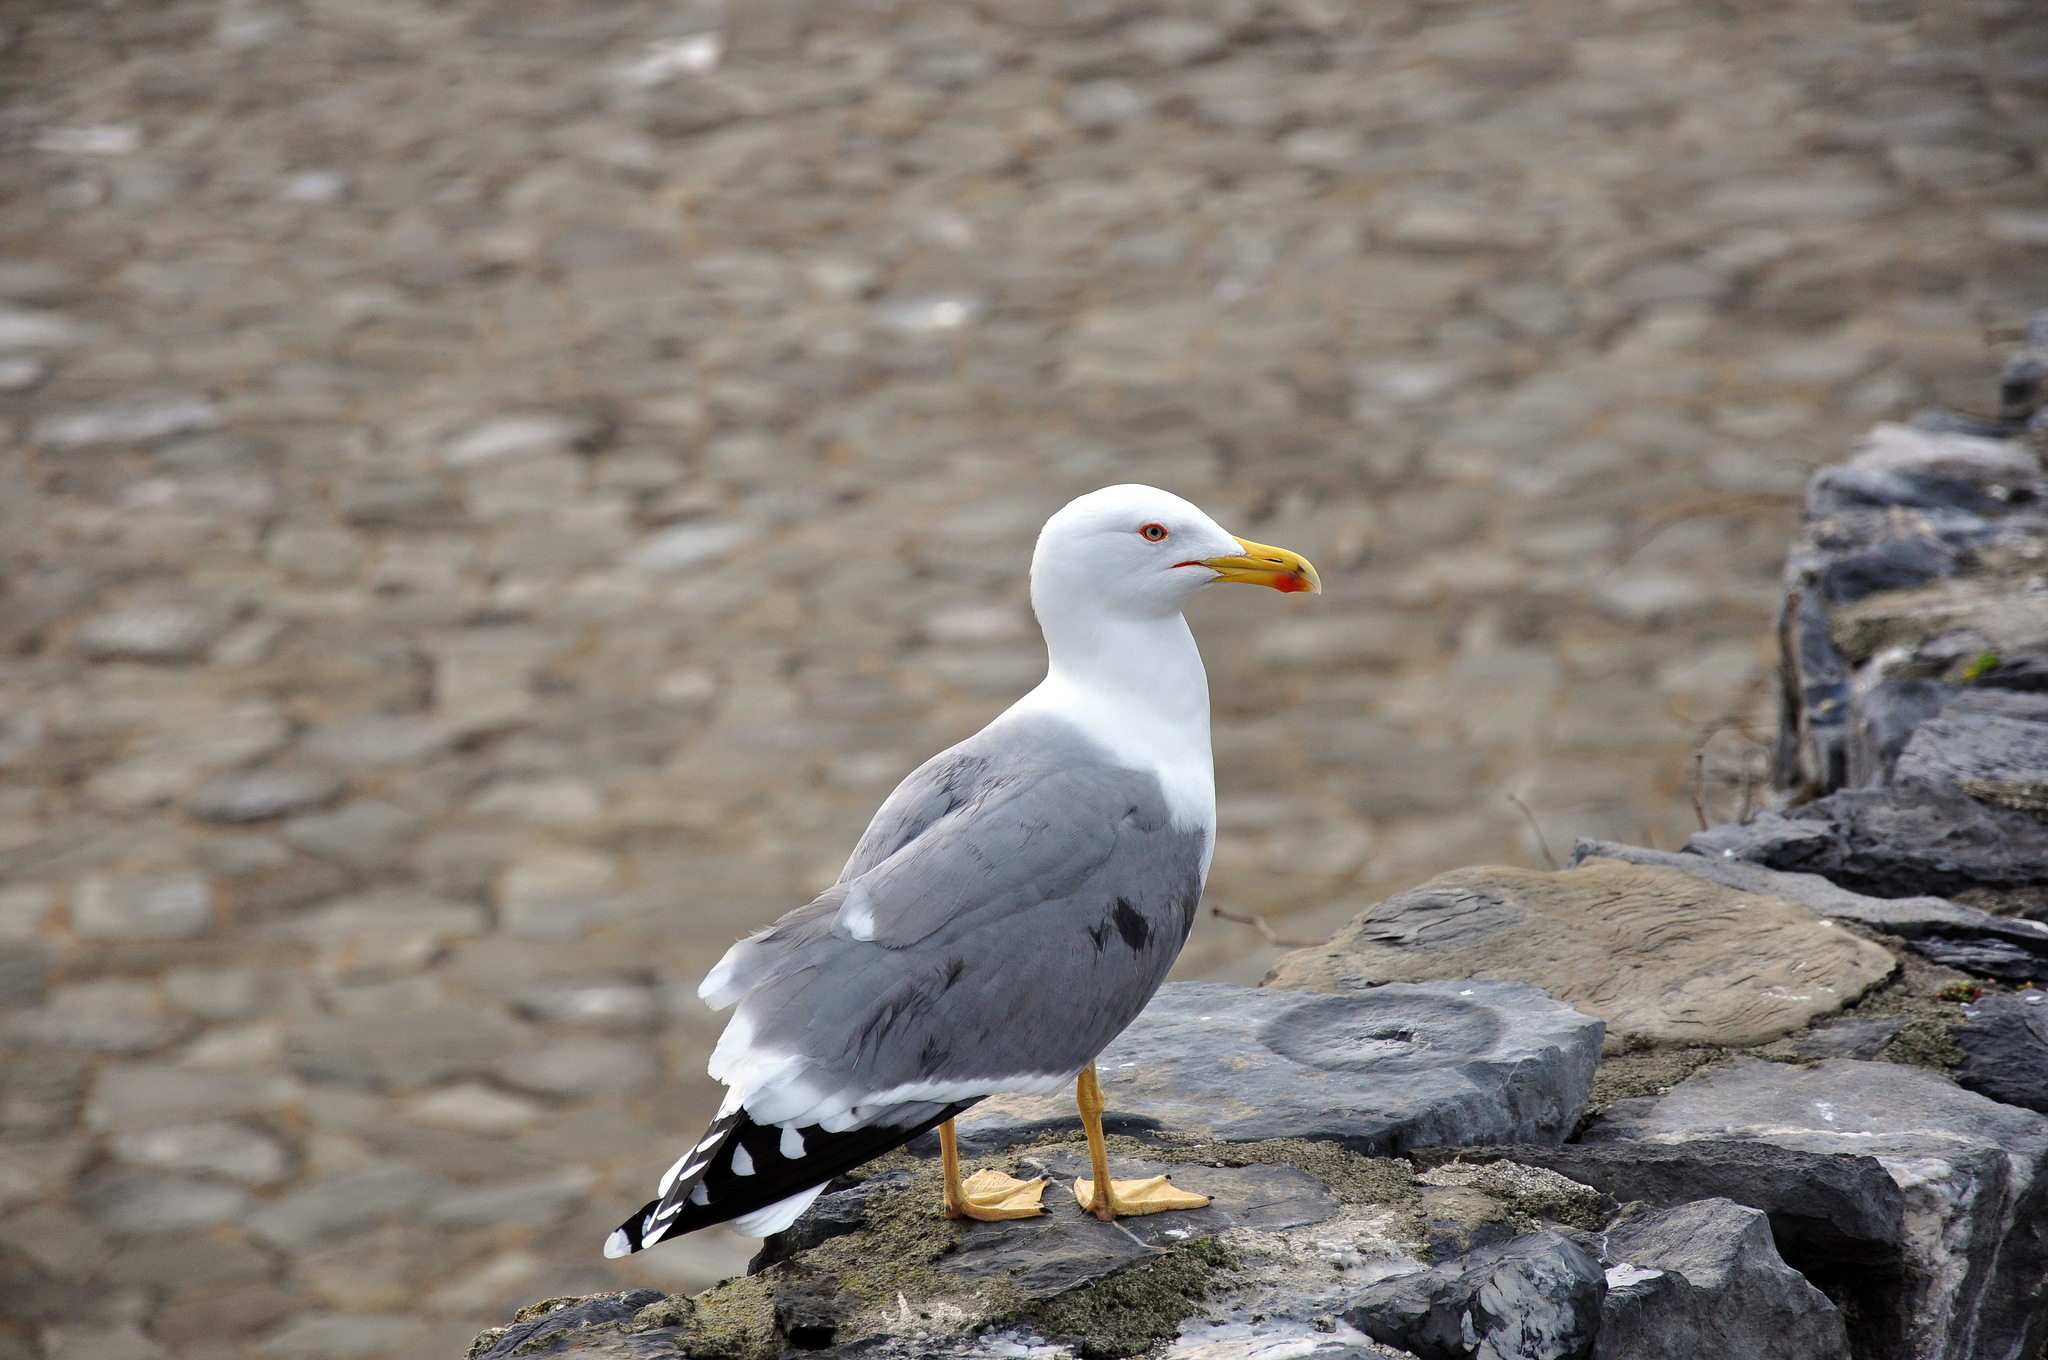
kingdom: Animalia
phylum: Chordata
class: Aves
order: Charadriiformes
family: Laridae
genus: Larus
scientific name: Larus michahellis
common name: Yellow-legged gull
